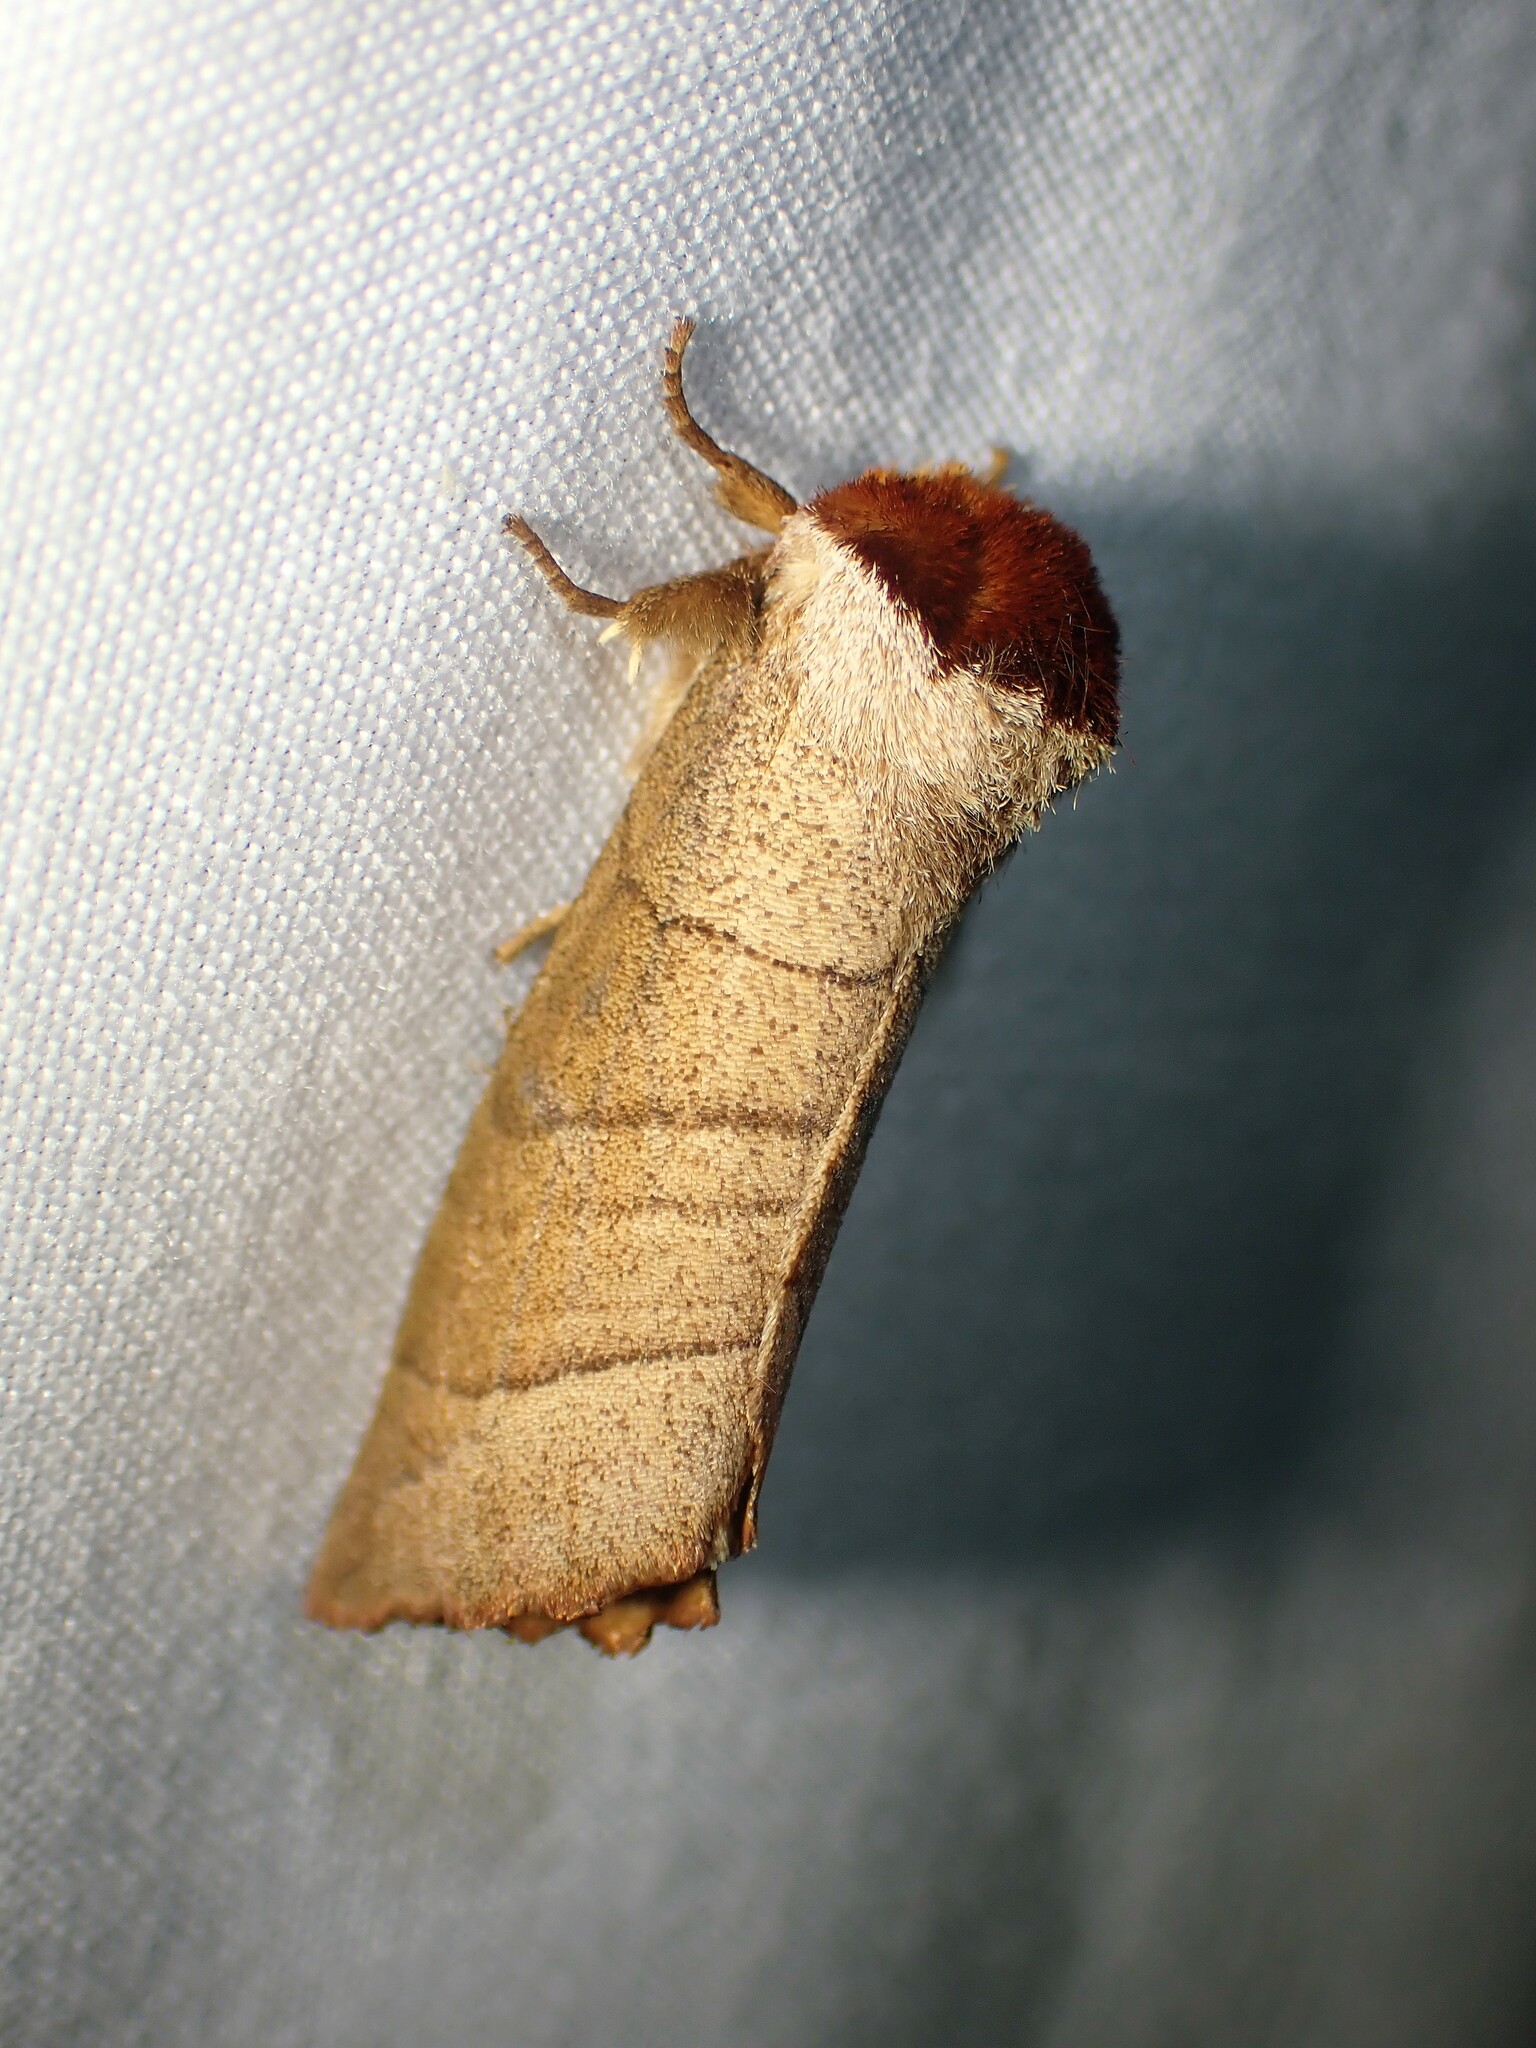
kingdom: Animalia
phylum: Arthropoda
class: Insecta
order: Lepidoptera
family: Notodontidae
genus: Datana
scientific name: Datana ministra
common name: Yellow-necked caterpillar moth
